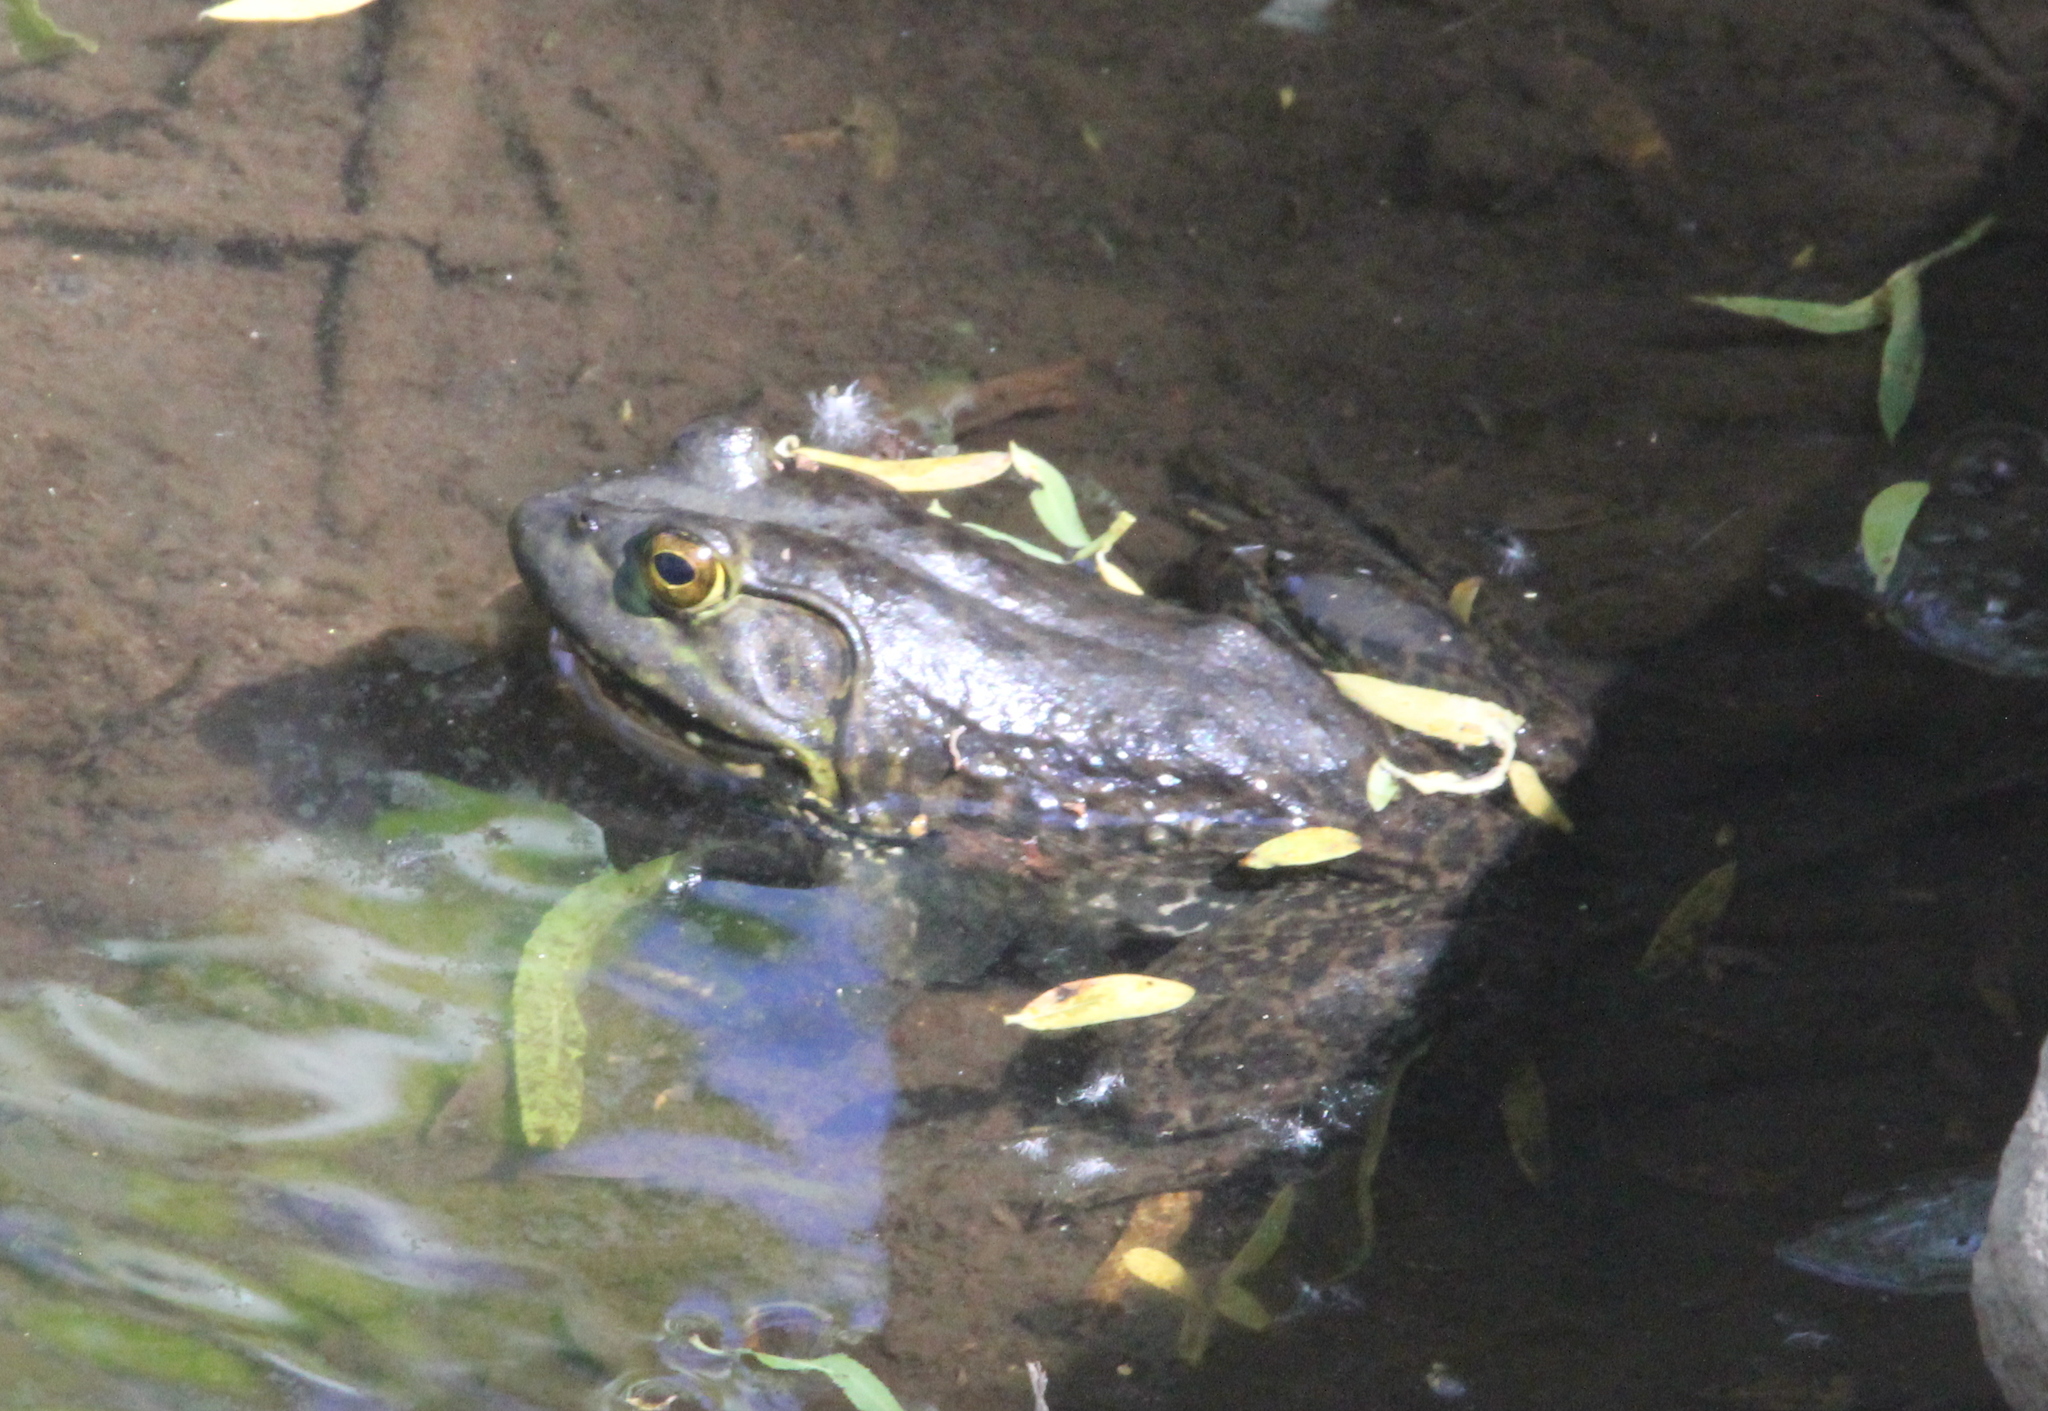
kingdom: Animalia
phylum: Chordata
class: Amphibia
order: Anura
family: Ranidae
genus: Lithobates
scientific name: Lithobates catesbeianus
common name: American bullfrog
